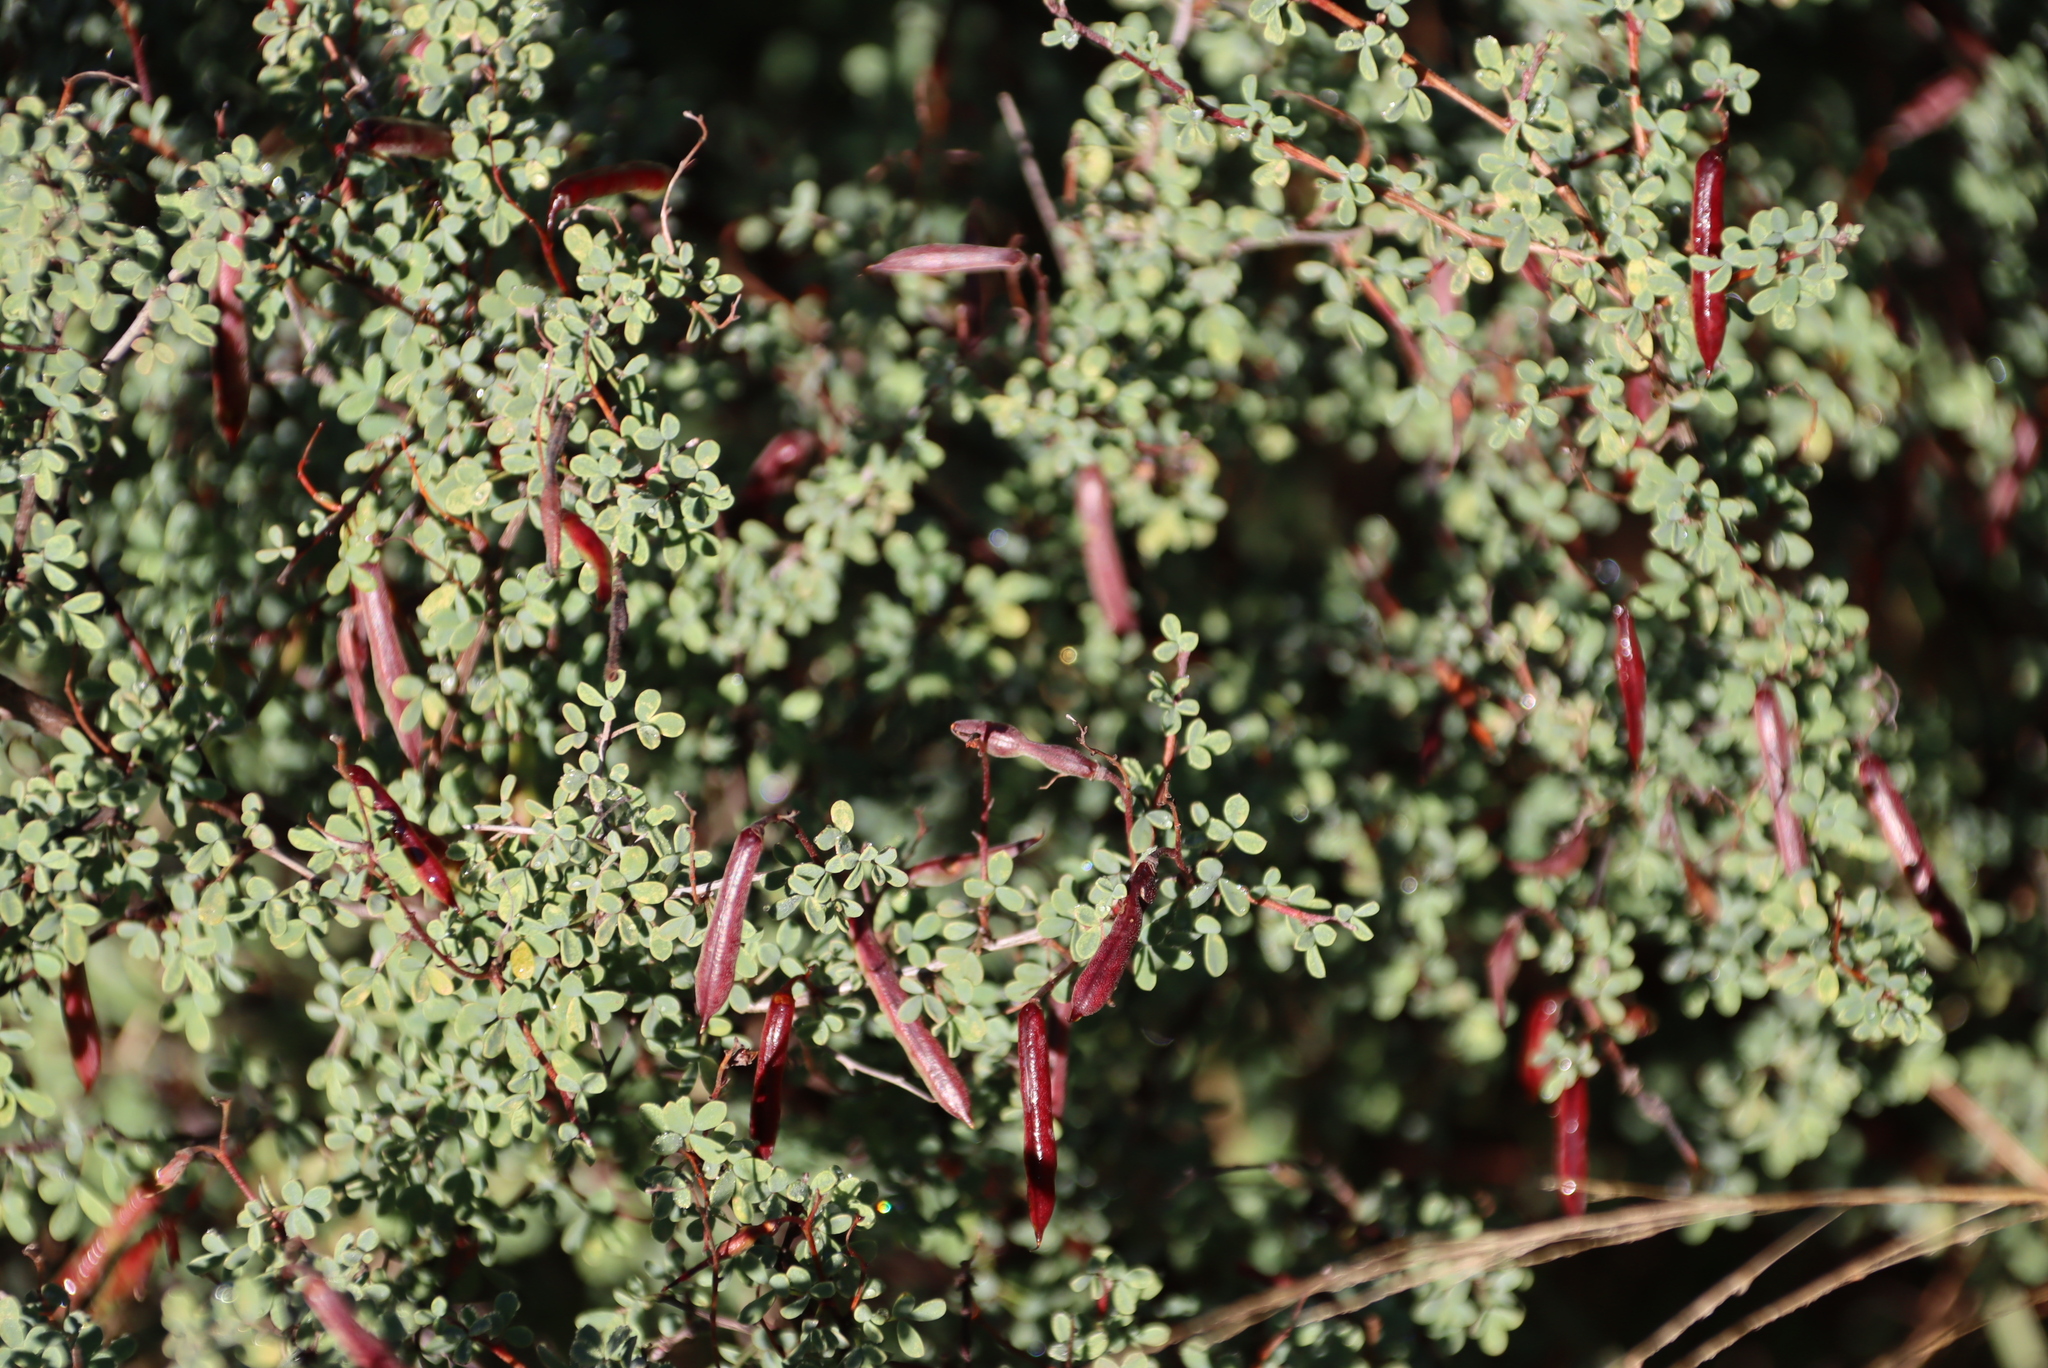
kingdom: Plantae
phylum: Tracheophyta
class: Magnoliopsida
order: Fabales
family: Fabaceae
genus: Indigofera
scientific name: Indigofera denudata
